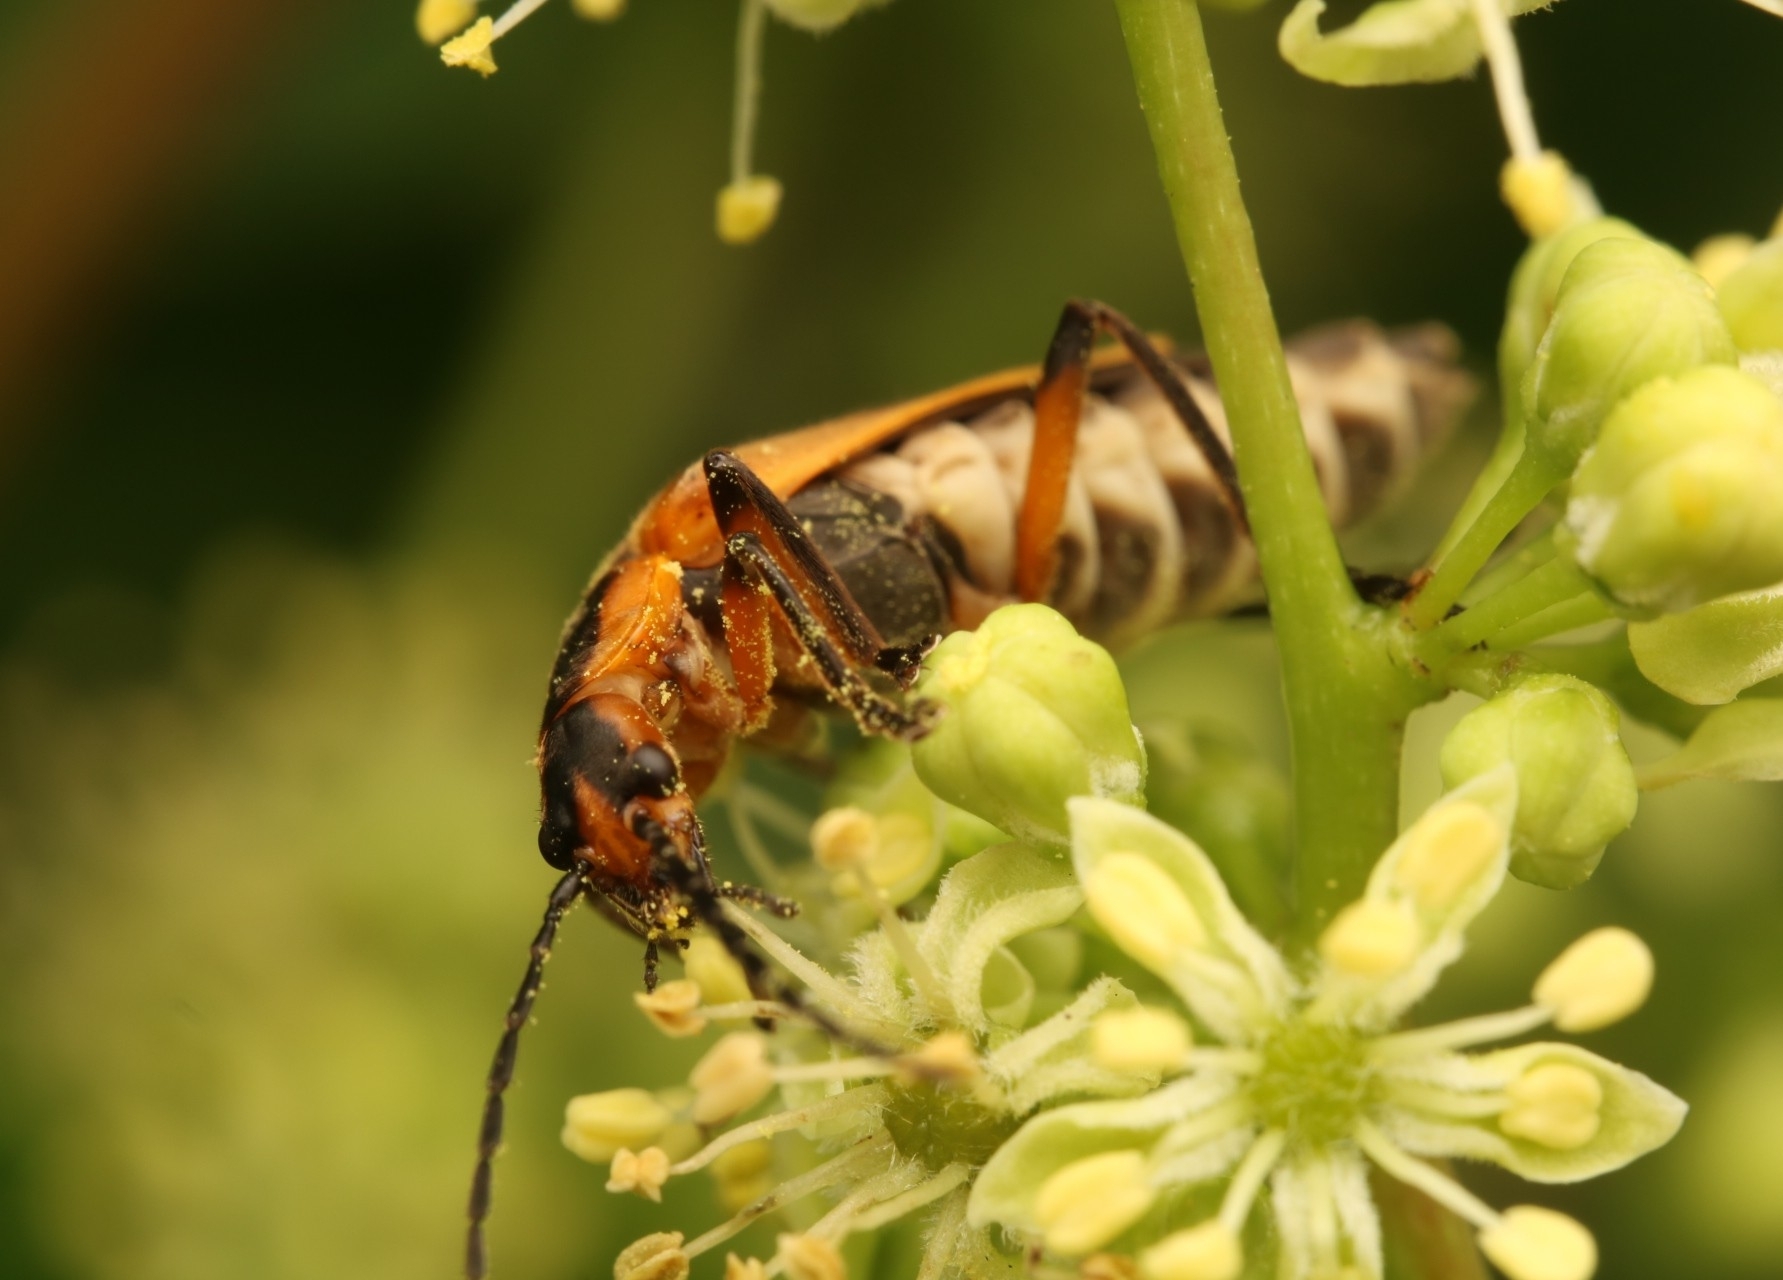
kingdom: Animalia
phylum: Arthropoda
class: Insecta
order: Coleoptera
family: Cantharidae
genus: Chauliognathus
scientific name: Chauliognathus marginatus
